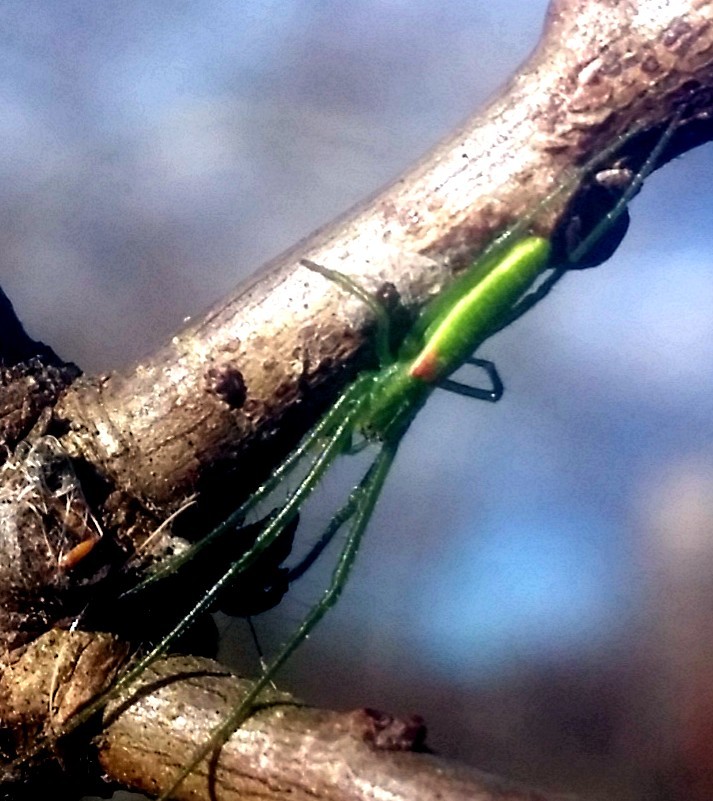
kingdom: Animalia
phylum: Arthropoda
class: Arachnida
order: Araneae
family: Tetragnathidae
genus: Tetragnatha
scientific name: Tetragnatha viridis
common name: Green long-jawed spider
